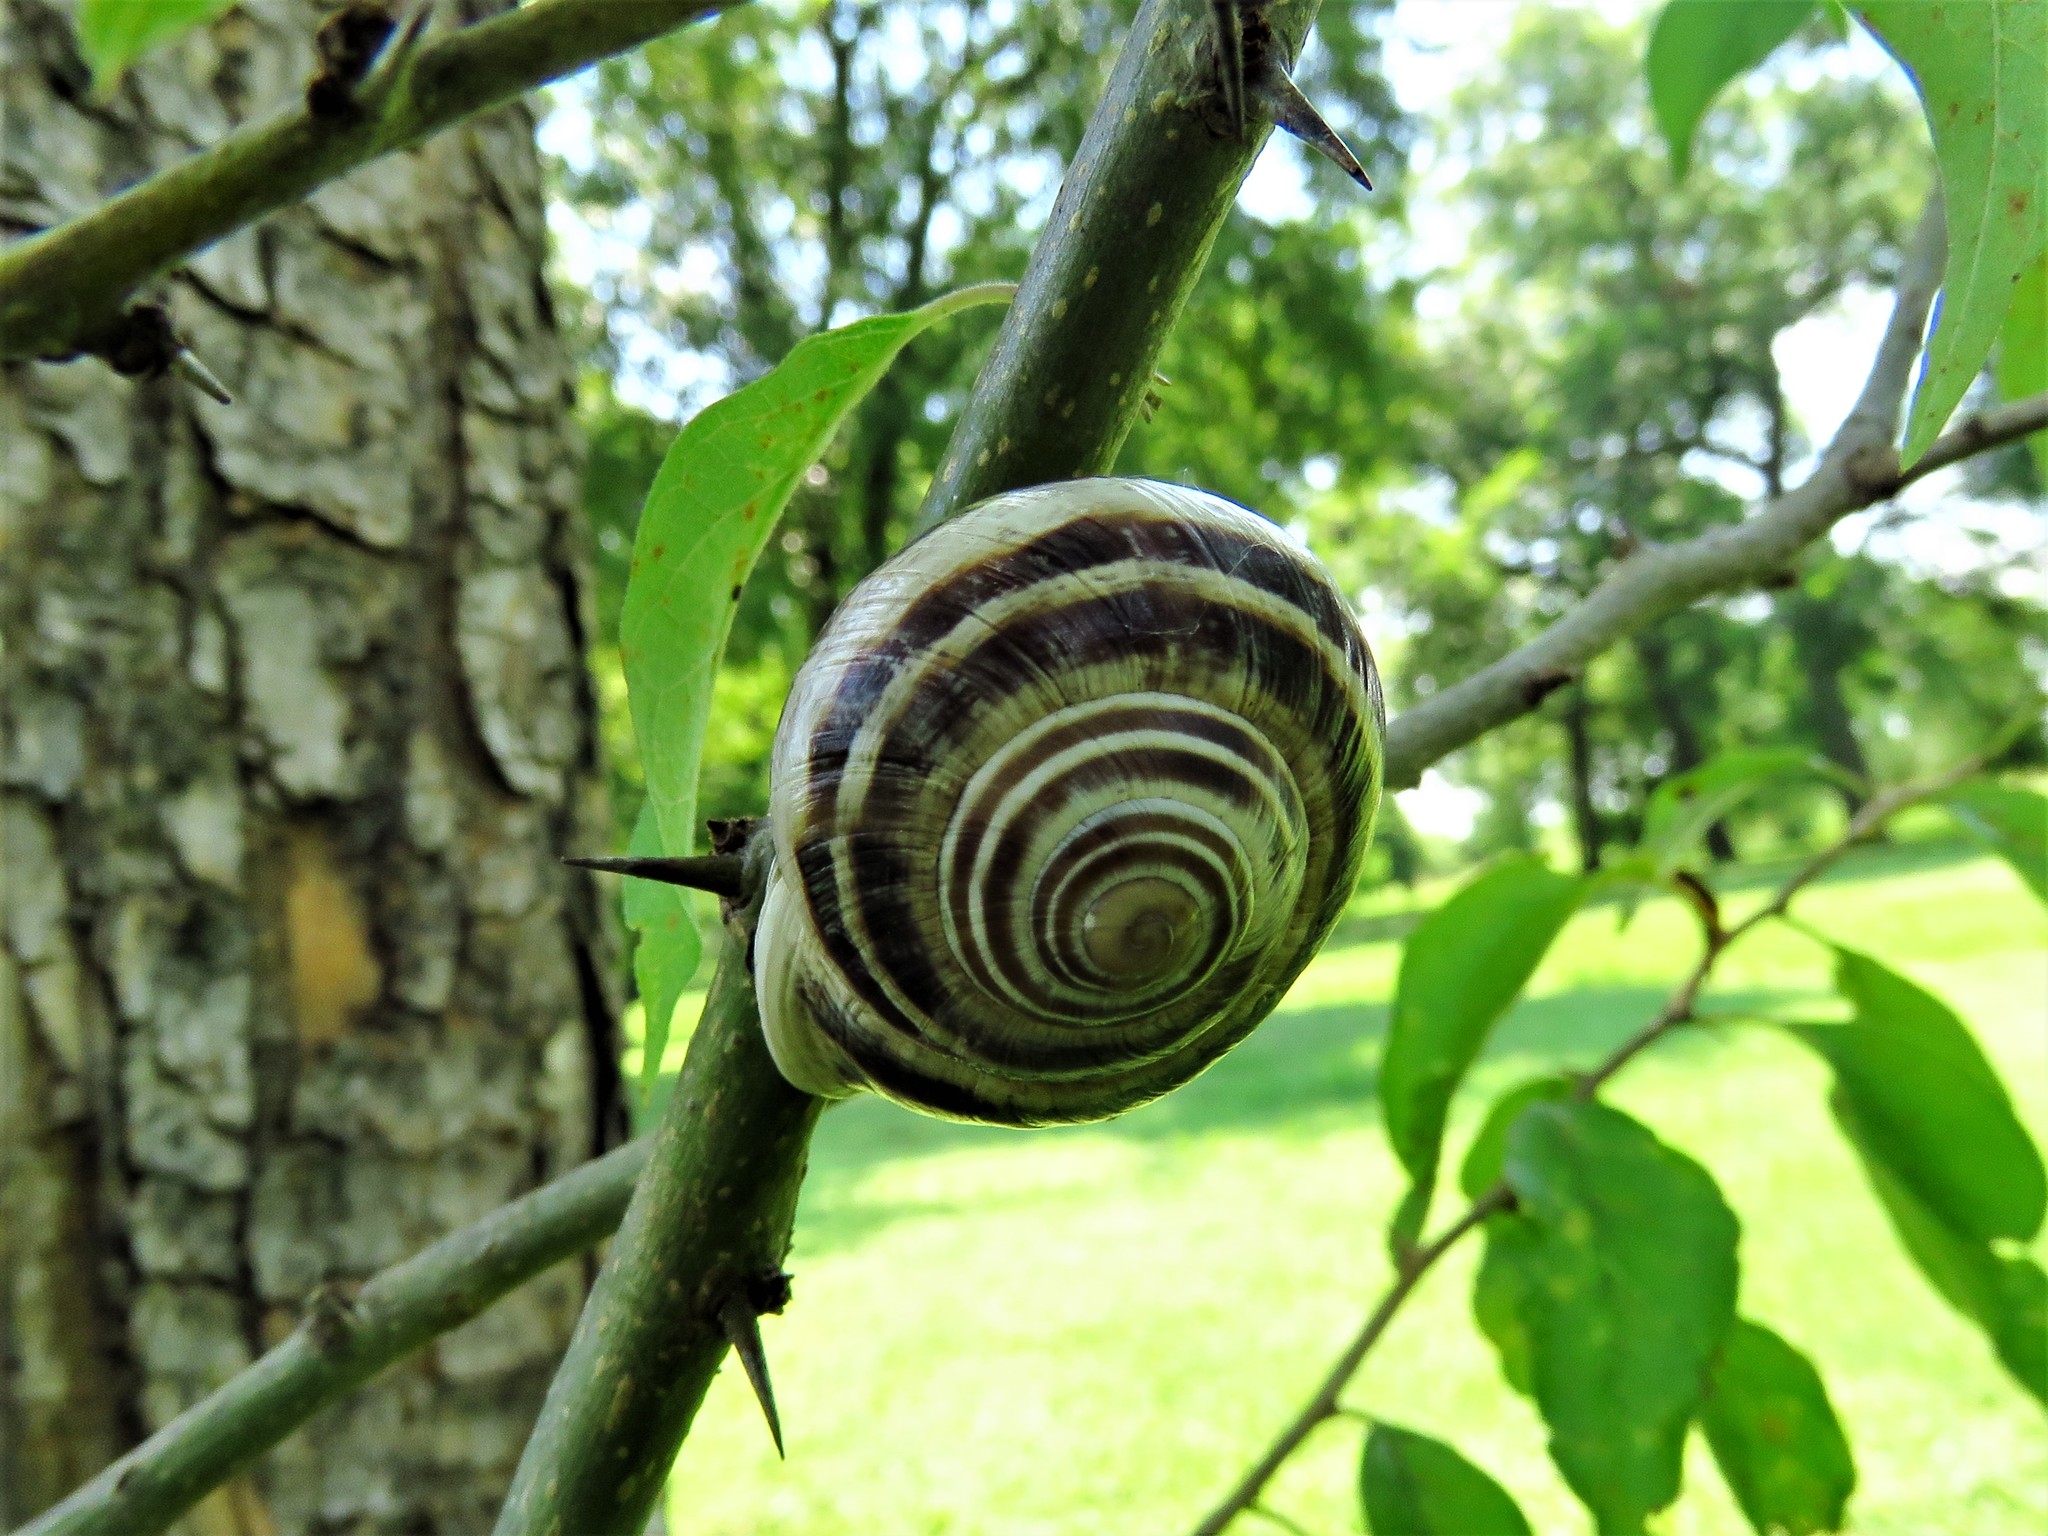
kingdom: Animalia
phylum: Mollusca
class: Gastropoda
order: Stylommatophora
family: Helicidae
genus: Otala
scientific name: Otala lactea
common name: Milk snail
